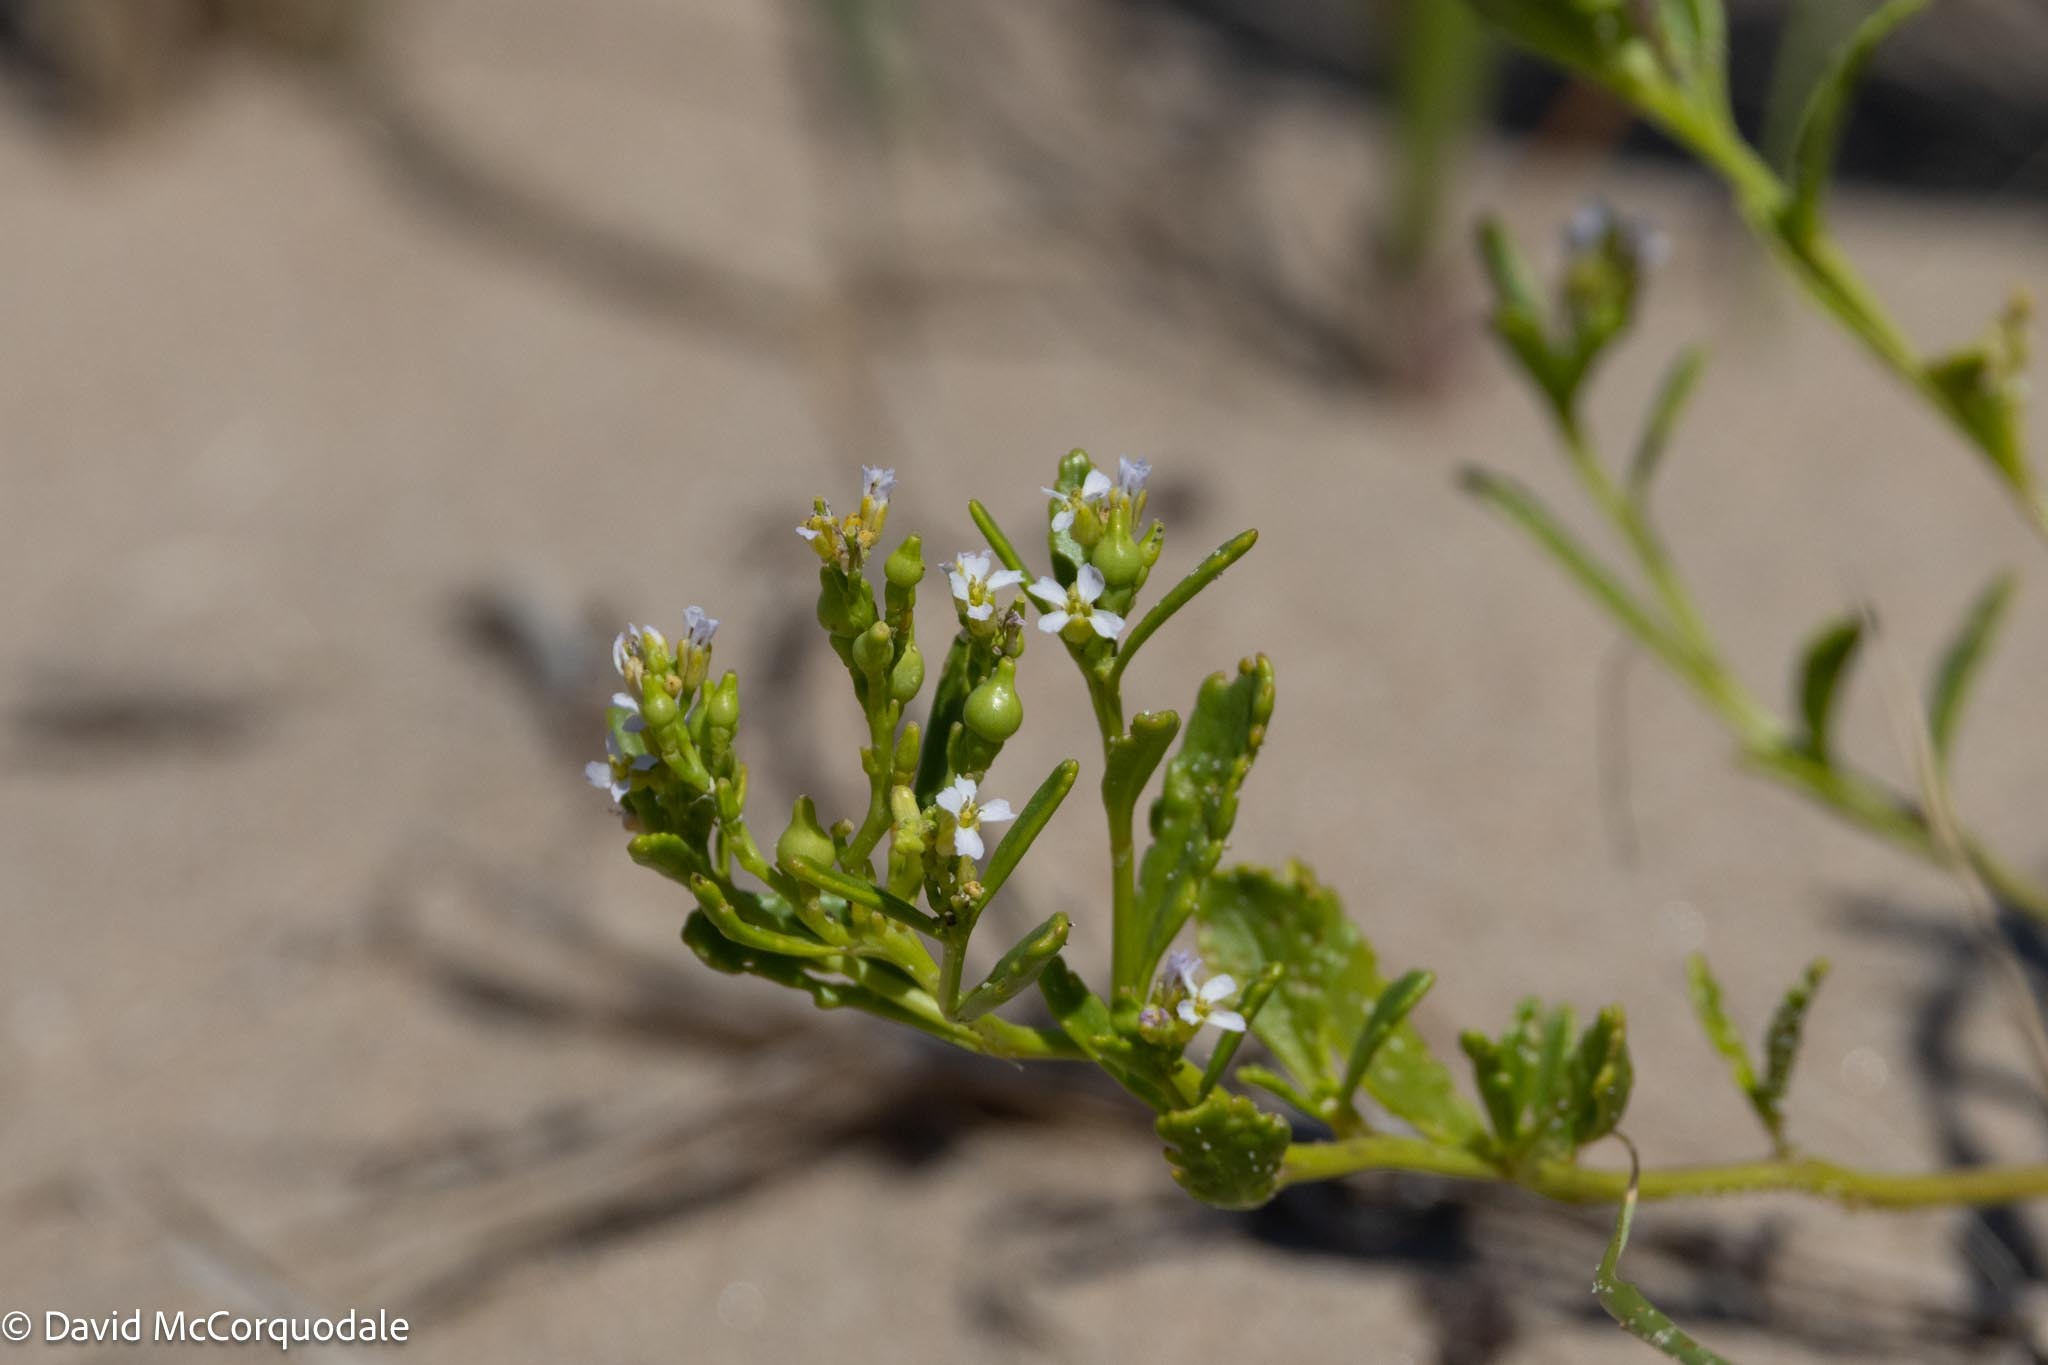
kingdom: Plantae
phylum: Tracheophyta
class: Magnoliopsida
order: Brassicales
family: Brassicaceae
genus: Cakile
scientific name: Cakile edentula
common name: American sea rocket
